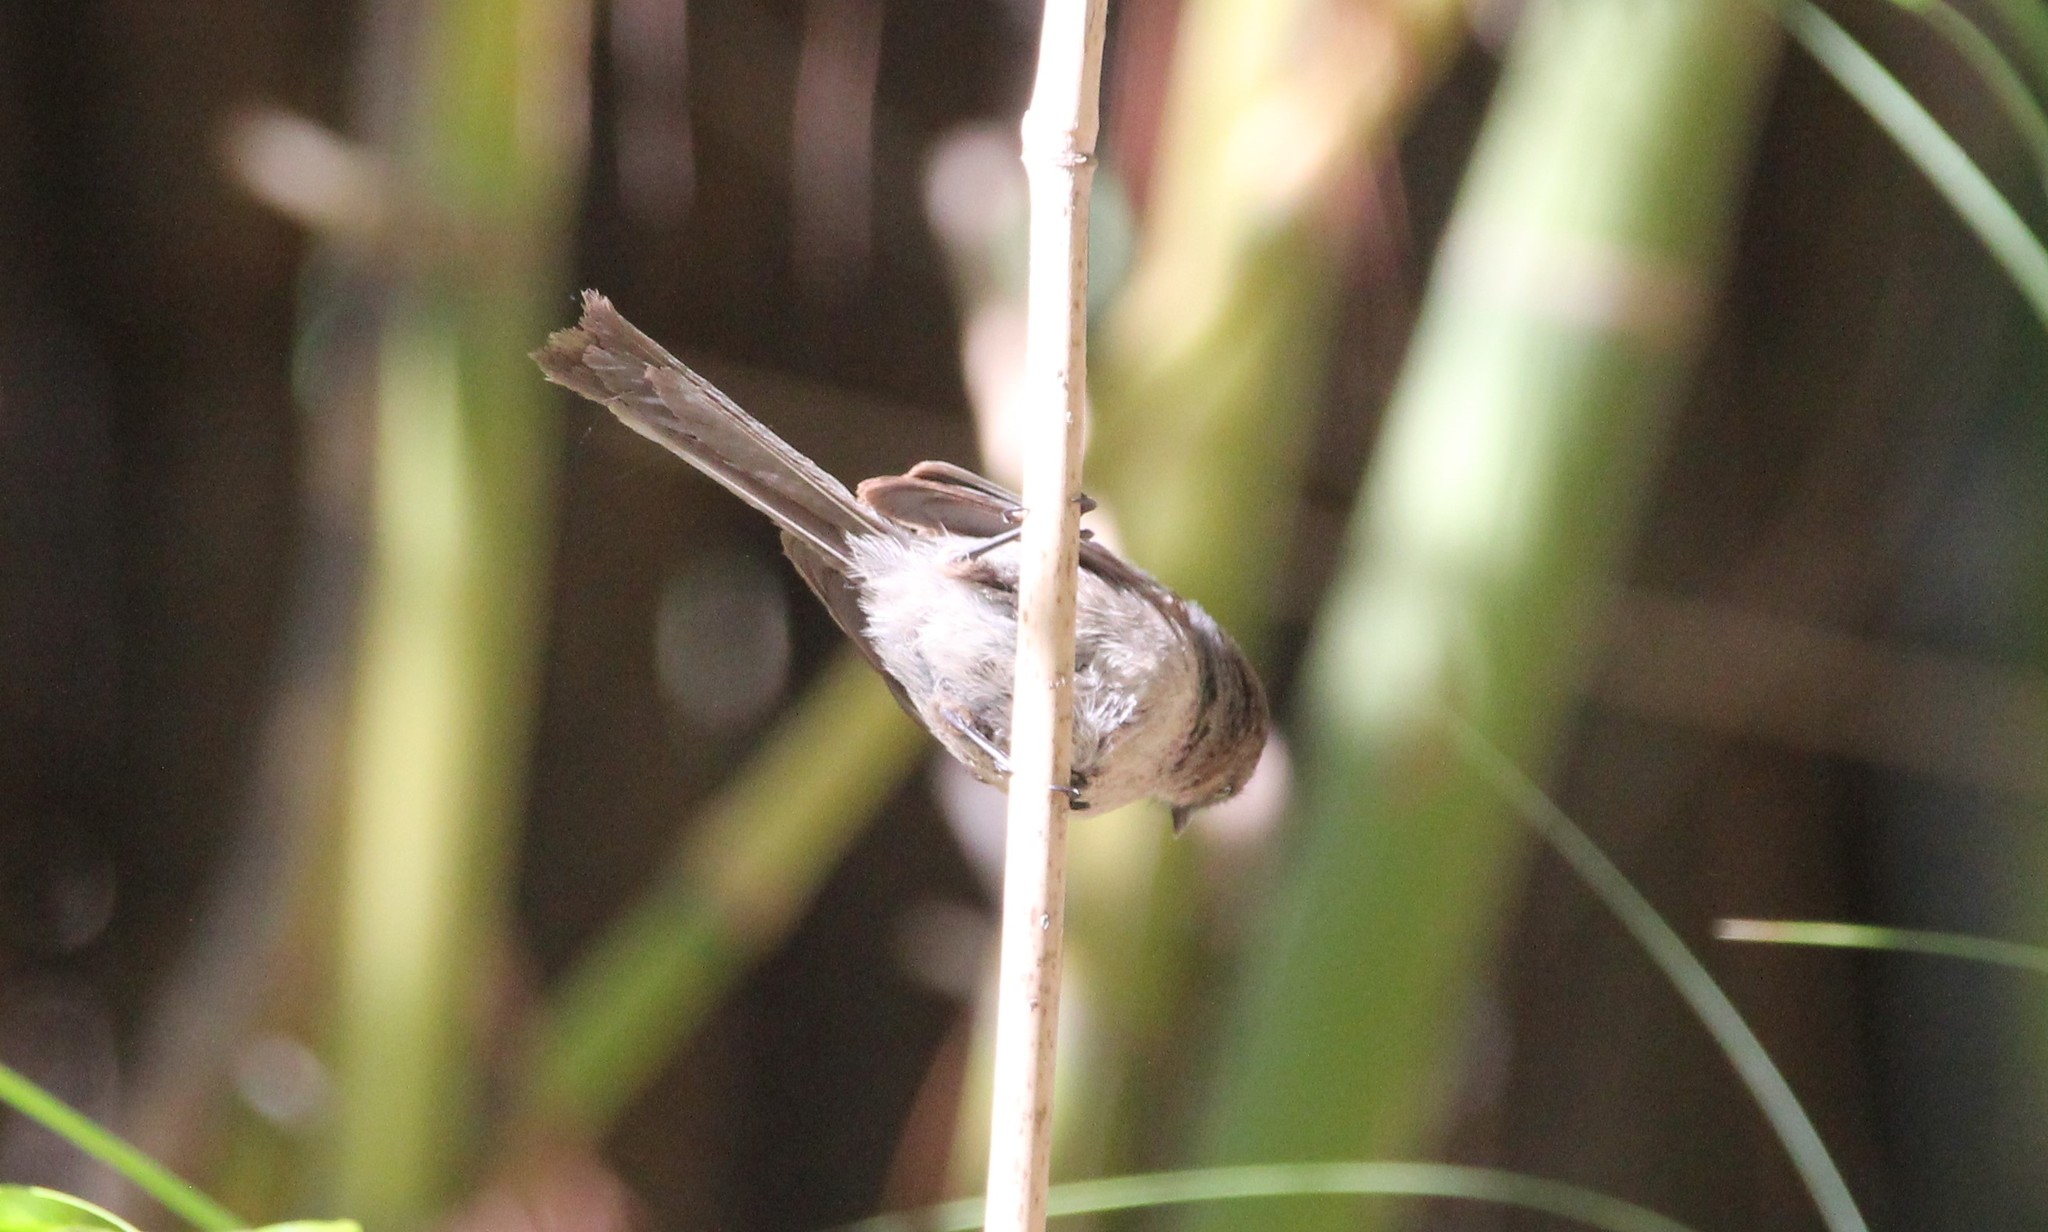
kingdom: Animalia
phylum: Chordata
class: Aves
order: Passeriformes
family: Aegithalidae
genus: Psaltriparus
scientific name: Psaltriparus minimus
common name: American bushtit
